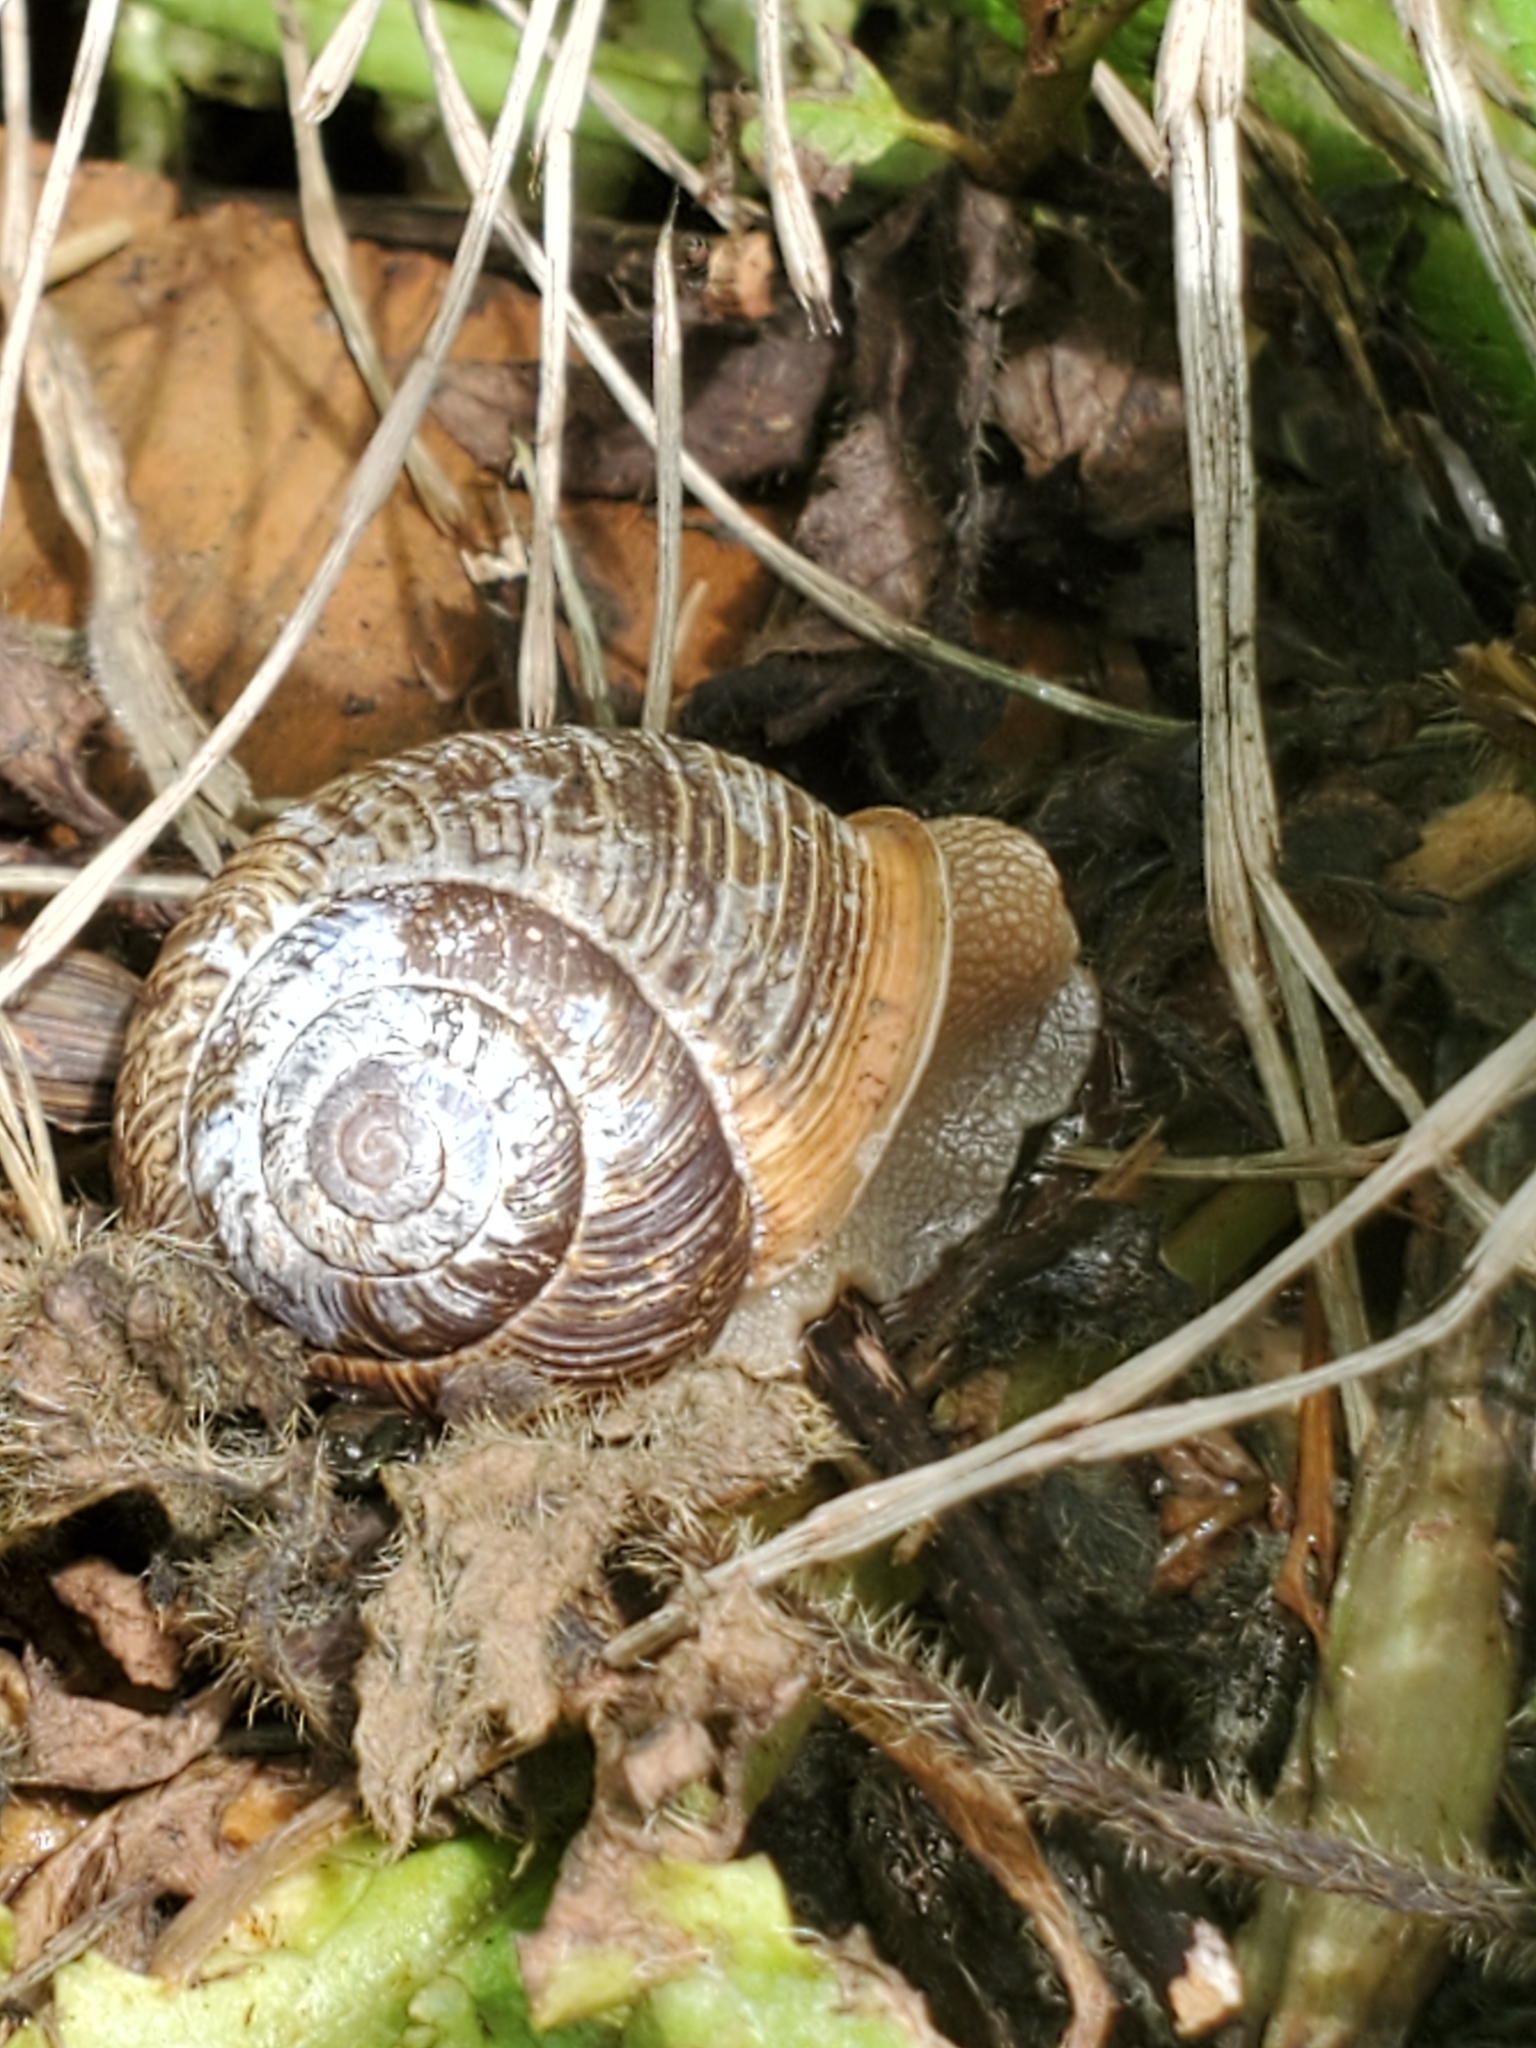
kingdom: Animalia
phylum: Mollusca
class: Gastropoda
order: Stylommatophora
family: Polygyridae
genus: Allogona
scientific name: Allogona townsendiana
